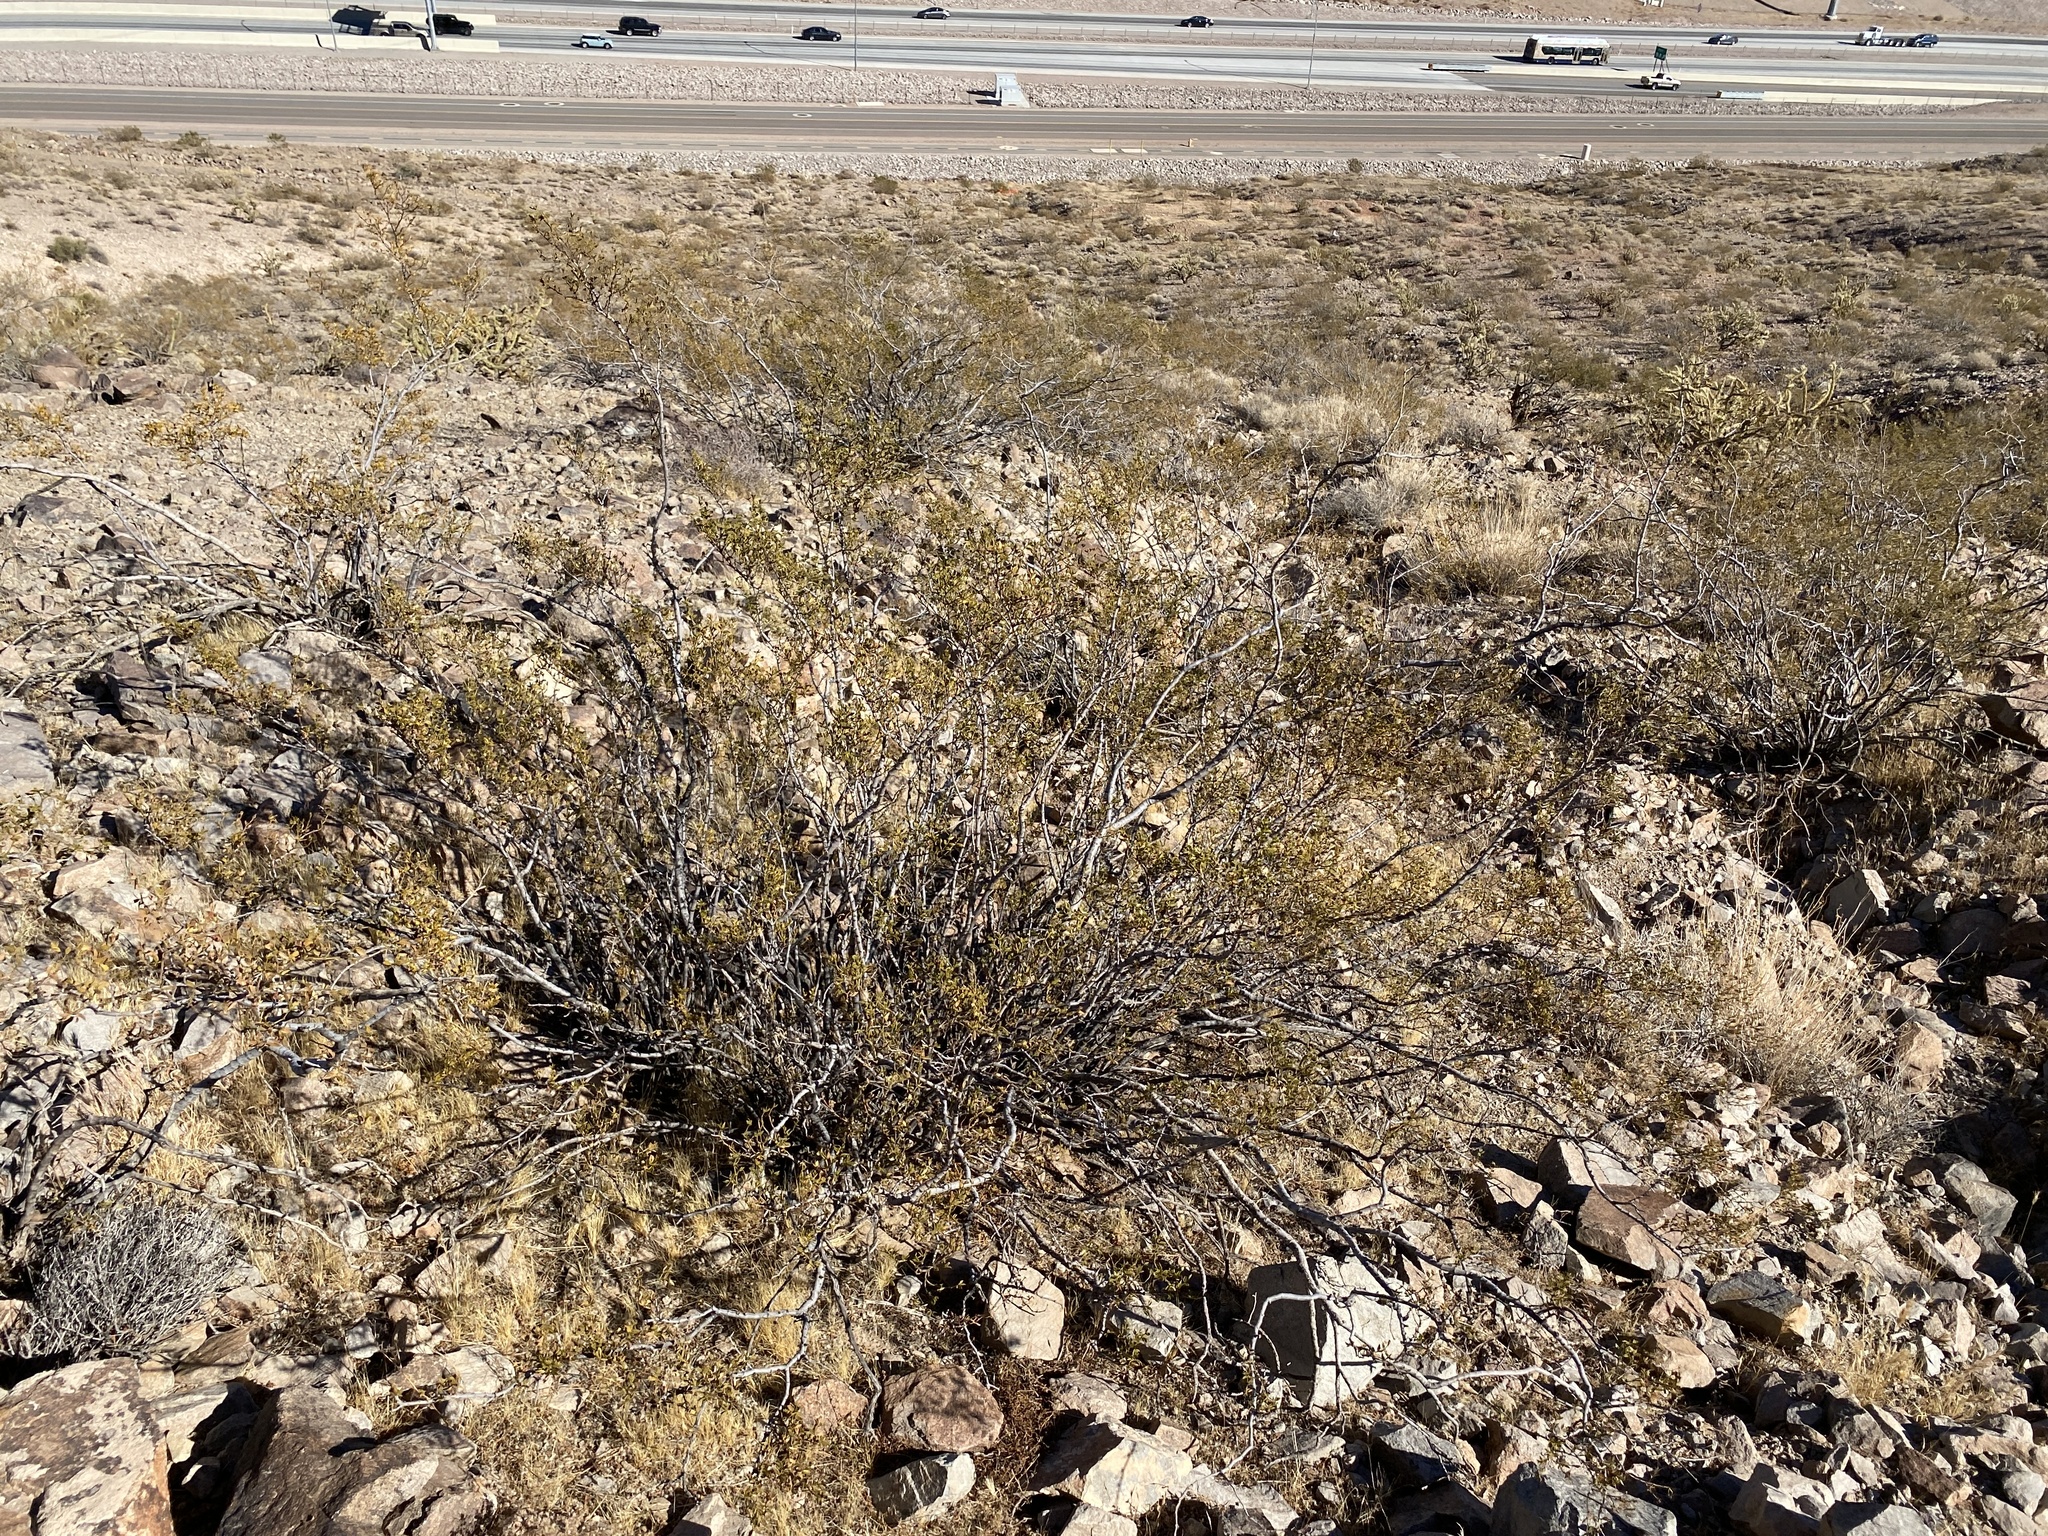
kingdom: Plantae
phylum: Tracheophyta
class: Magnoliopsida
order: Zygophyllales
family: Zygophyllaceae
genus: Larrea
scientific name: Larrea tridentata
